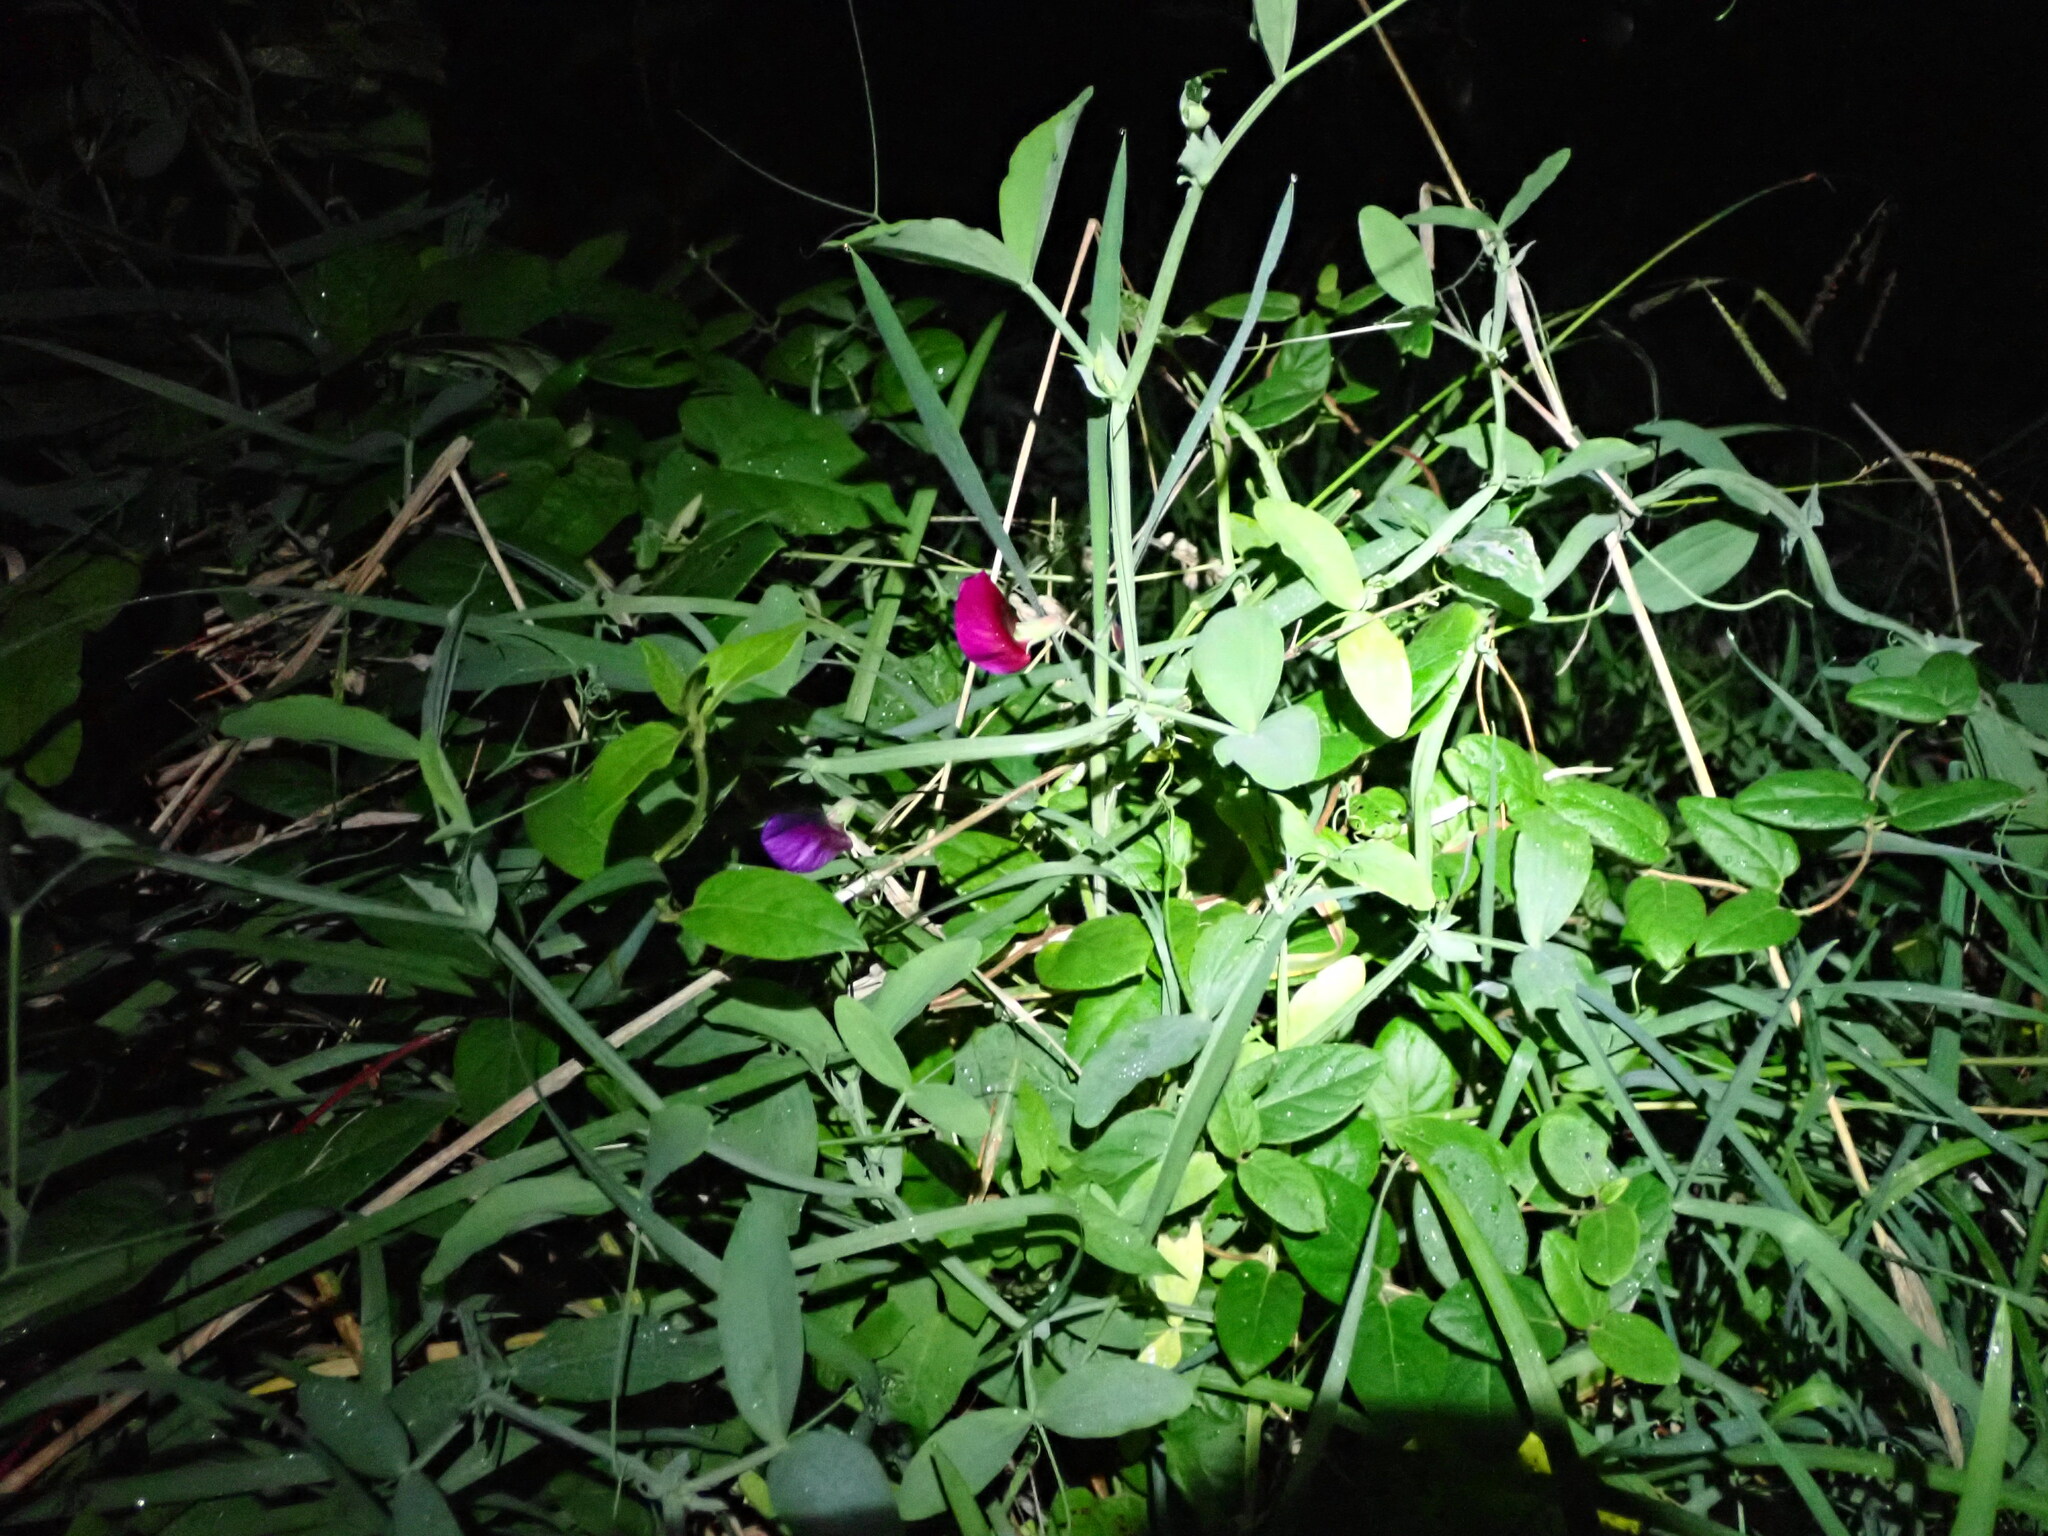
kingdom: Plantae
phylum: Tracheophyta
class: Magnoliopsida
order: Fabales
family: Fabaceae
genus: Lathyrus
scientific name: Lathyrus tingitanus
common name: Tangier pea
